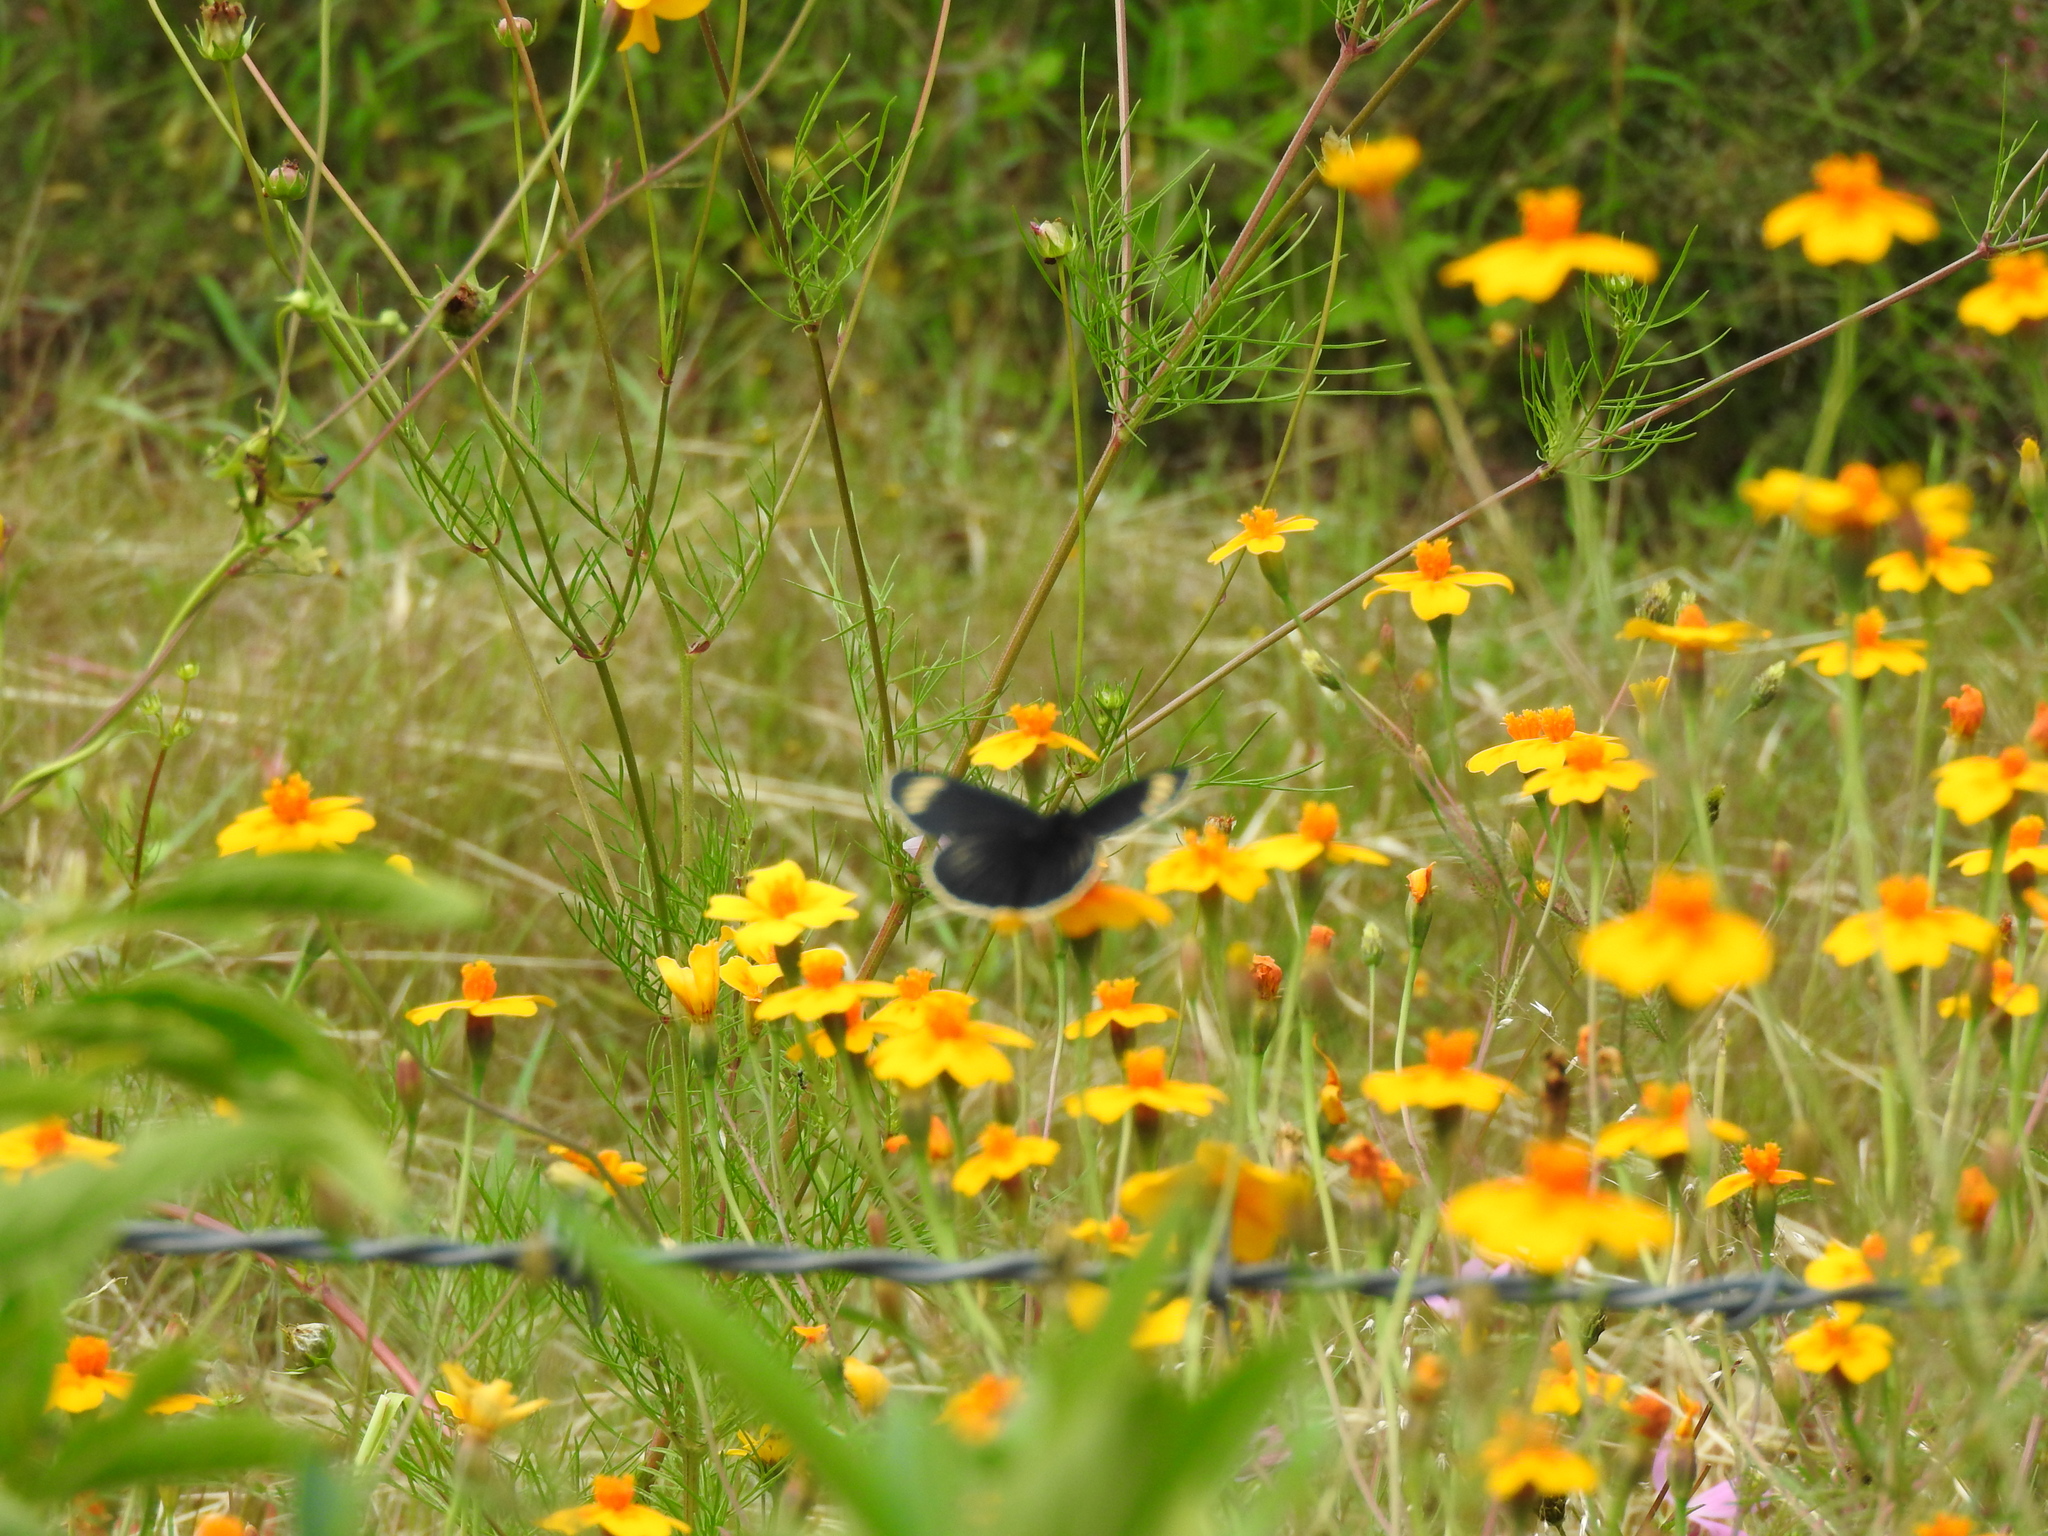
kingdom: Animalia
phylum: Arthropoda
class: Insecta
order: Lepidoptera
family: Nymphalidae
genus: Chlosyne
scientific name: Chlosyne ehrenbergii
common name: White-rayed patch
